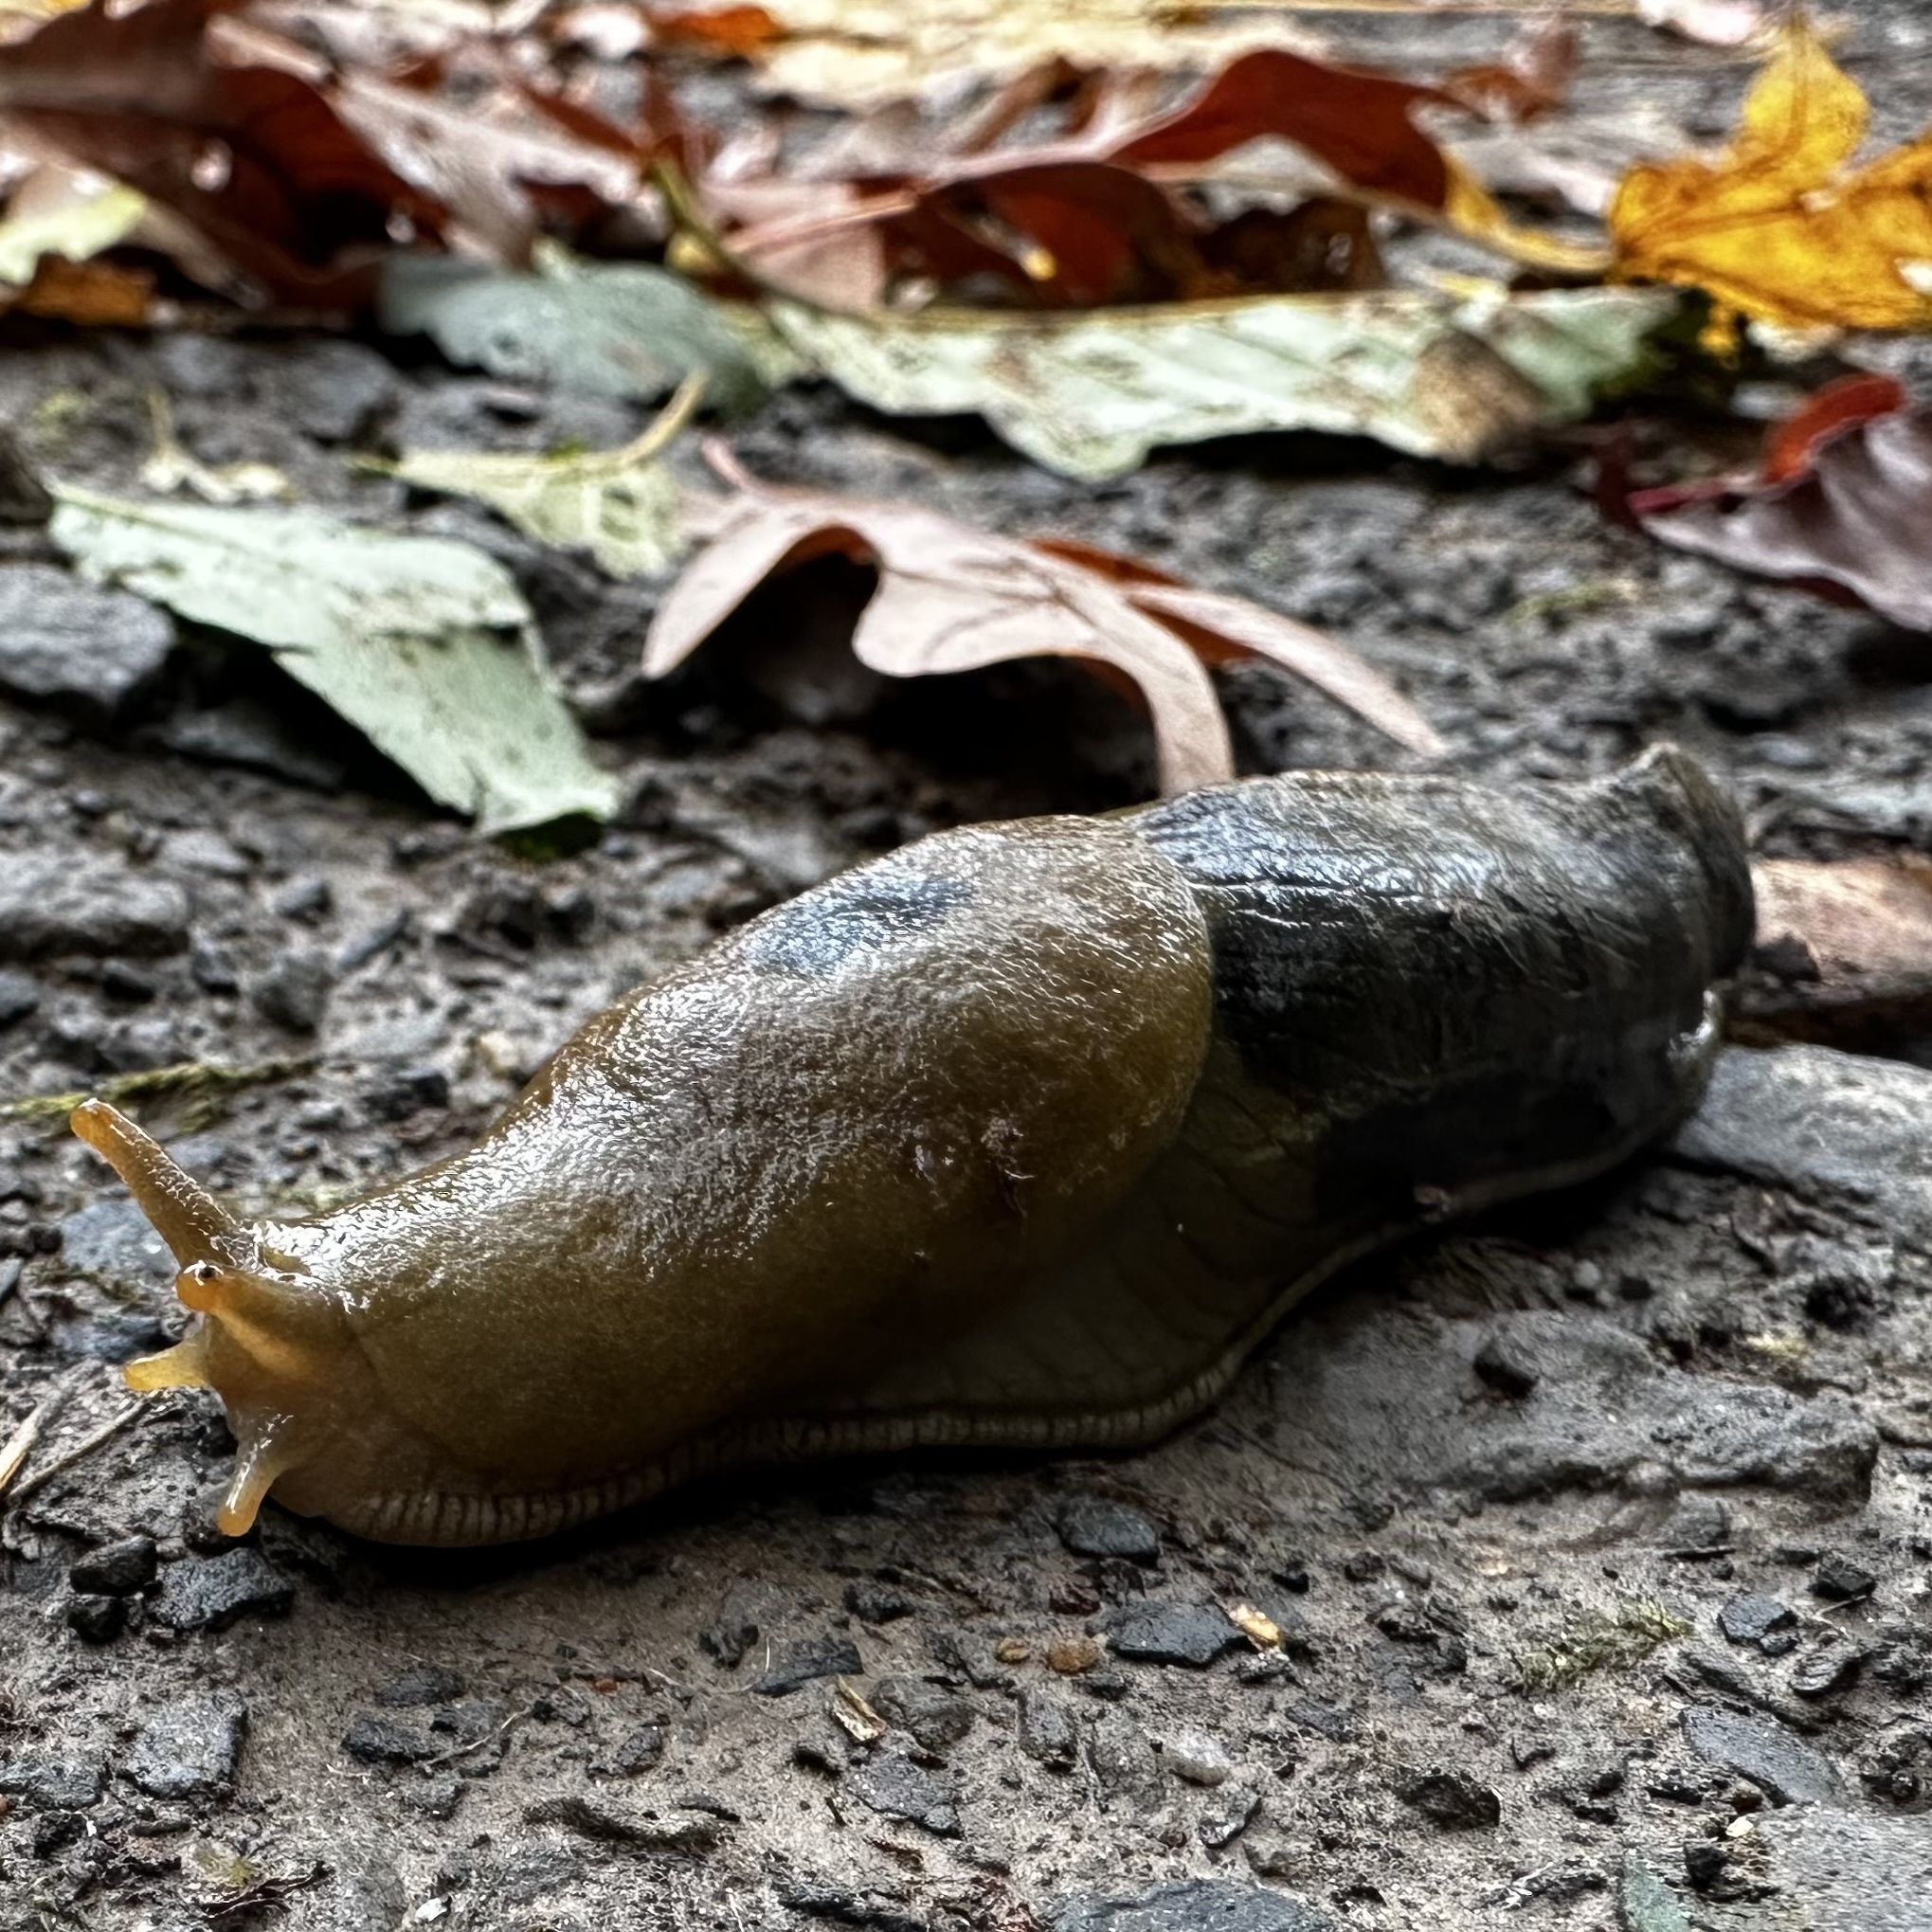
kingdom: Animalia
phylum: Mollusca
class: Gastropoda
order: Stylommatophora
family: Ariolimacidae
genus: Ariolimax
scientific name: Ariolimax columbianus
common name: Pacific banana slug
